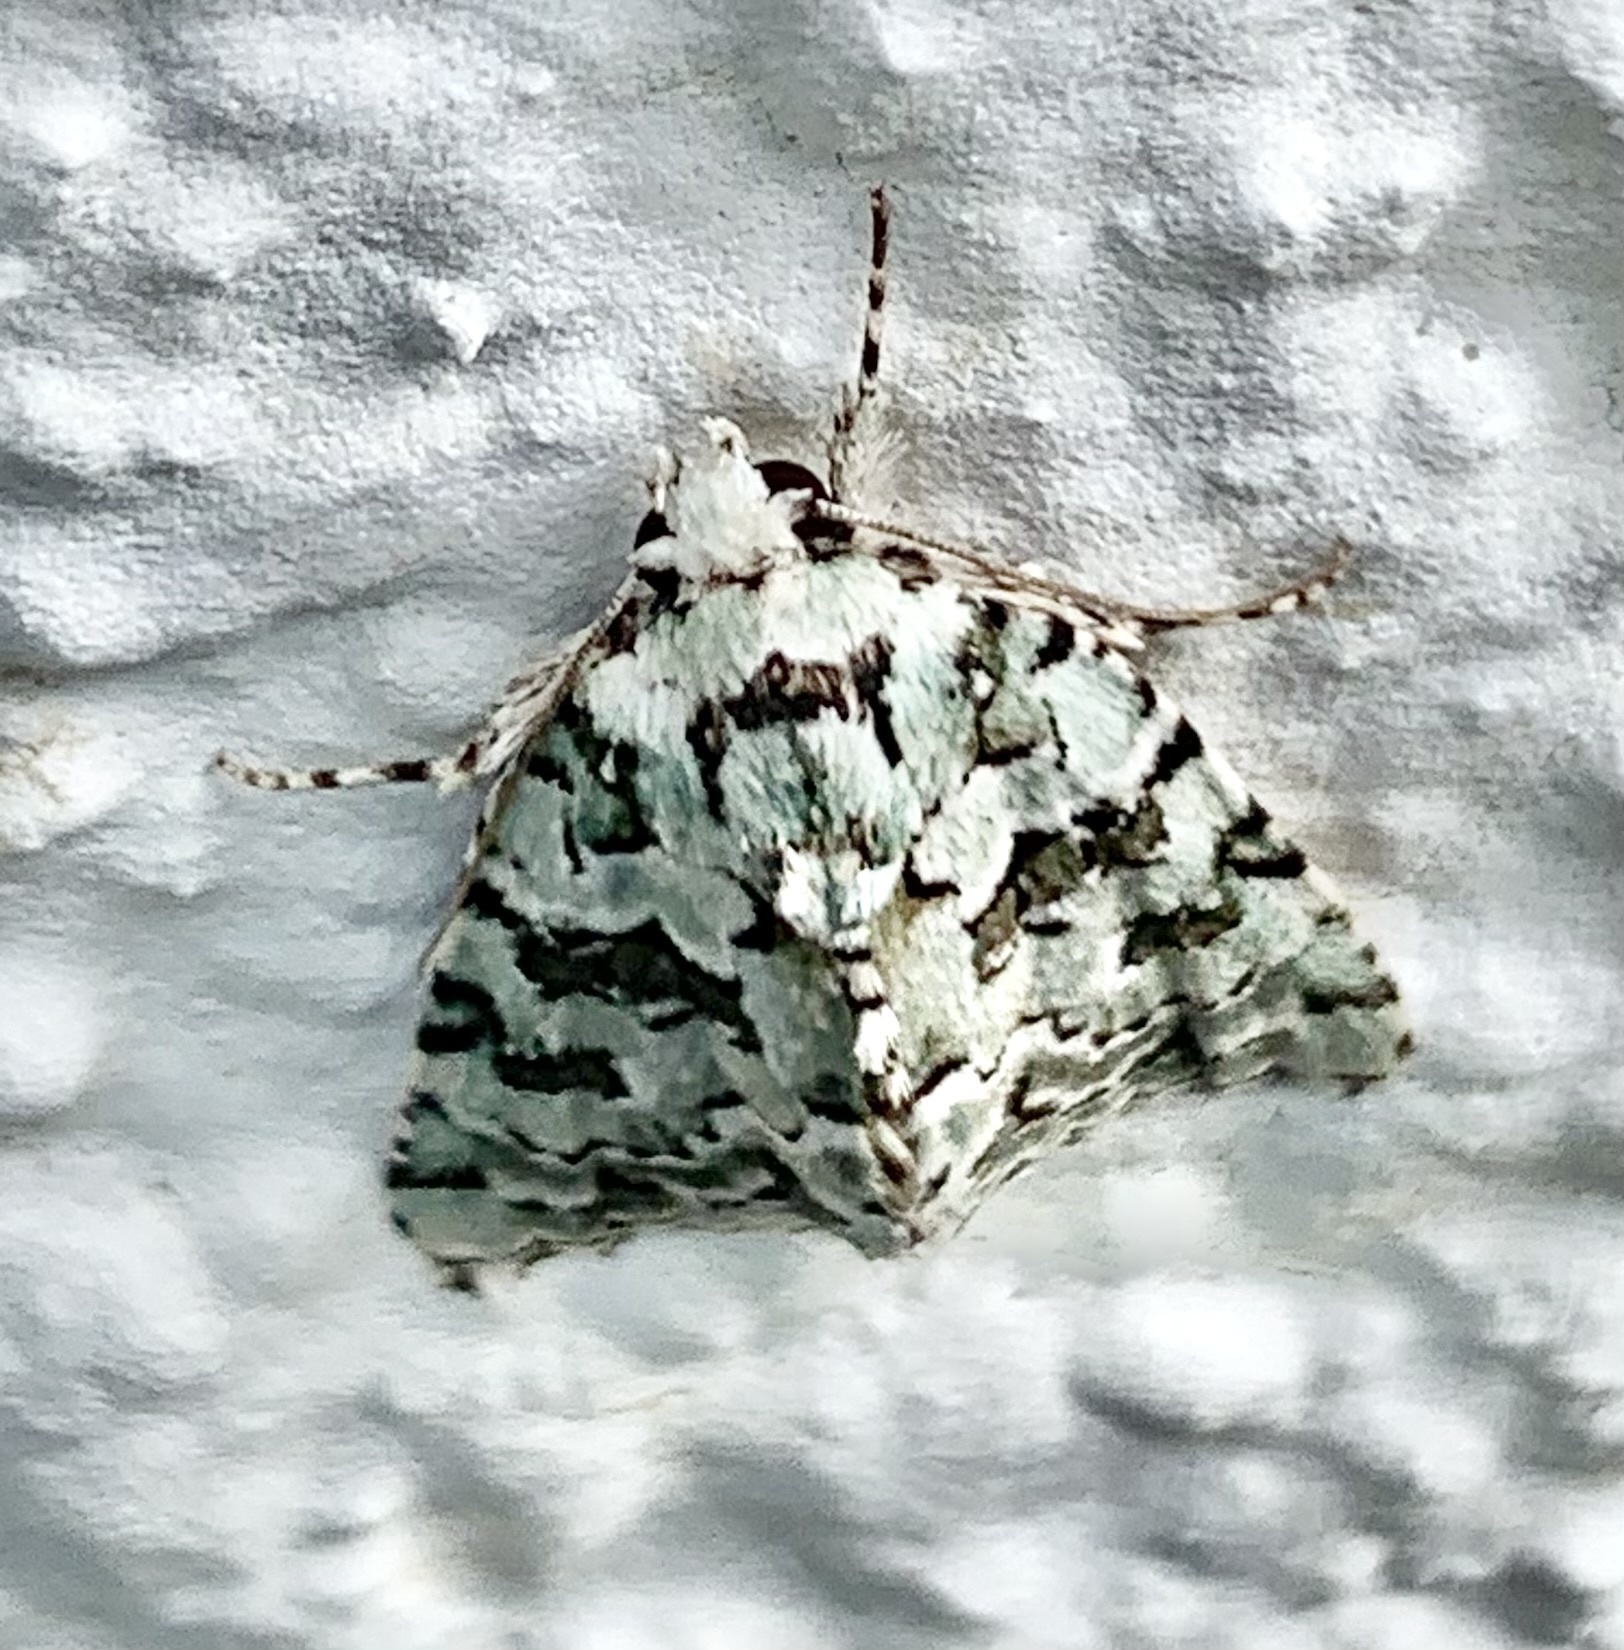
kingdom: Animalia
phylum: Arthropoda
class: Insecta
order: Lepidoptera
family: Noctuidae
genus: Nyctobrya
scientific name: Nyctobrya muralis
